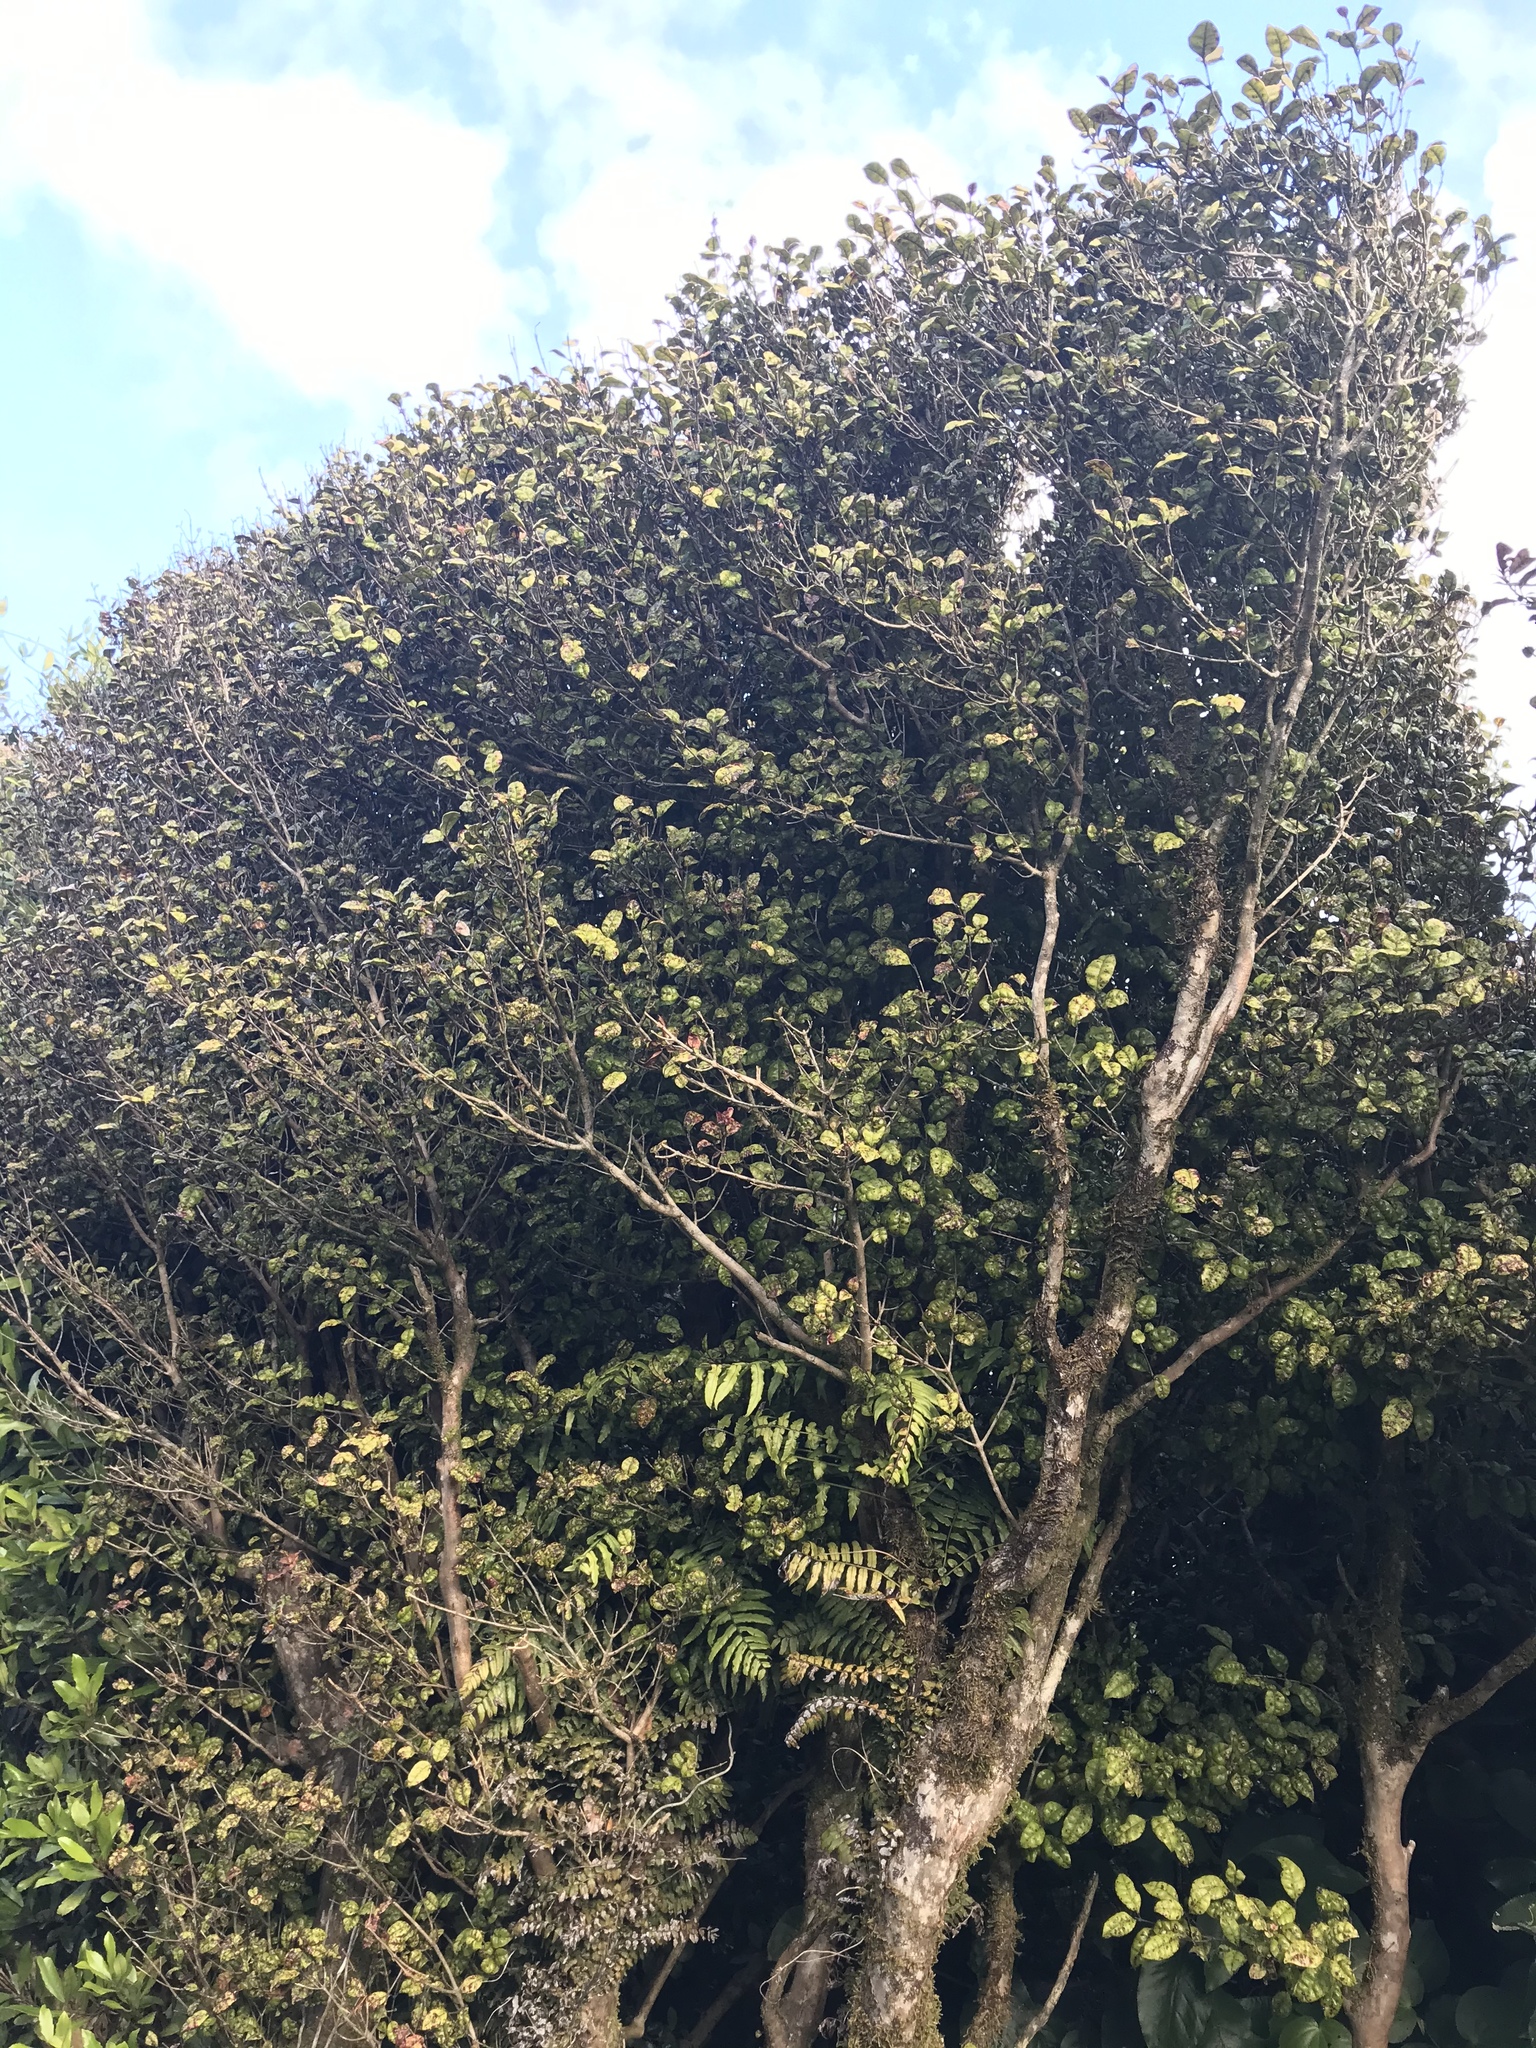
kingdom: Plantae
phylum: Tracheophyta
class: Magnoliopsida
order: Myrtales
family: Myrtaceae
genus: Lophomyrtus
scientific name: Lophomyrtus bullata
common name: Rama rama
